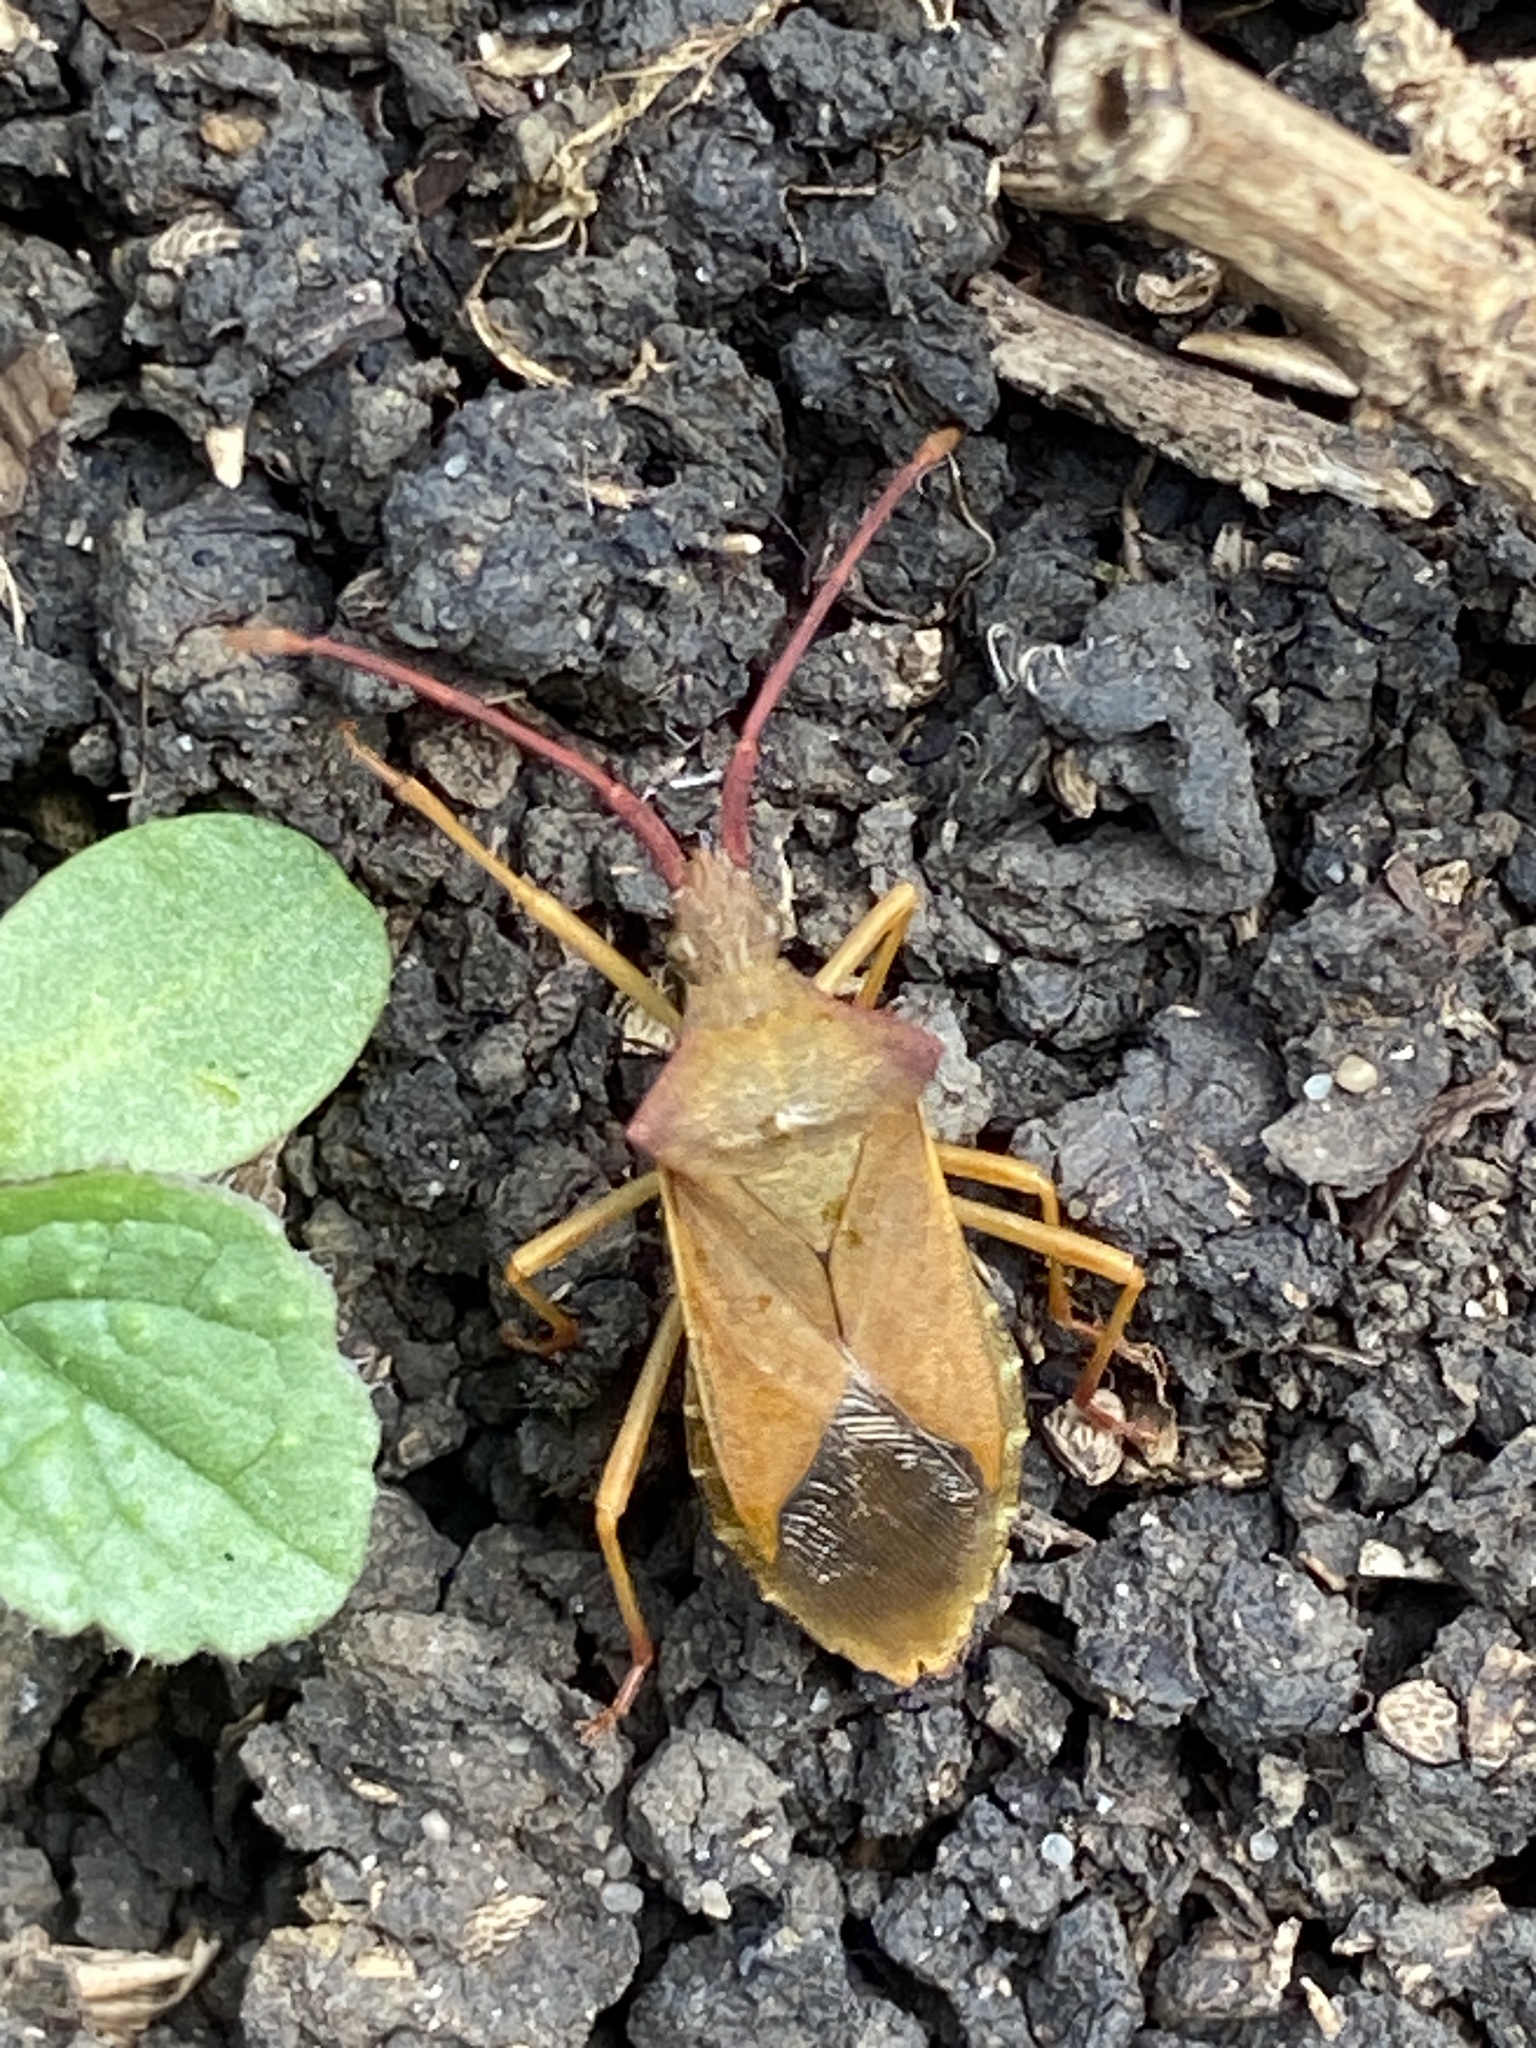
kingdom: Animalia
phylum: Arthropoda
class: Insecta
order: Hemiptera
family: Coreidae
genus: Gonocerus
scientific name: Gonocerus acuteangulatus
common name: Box bug
